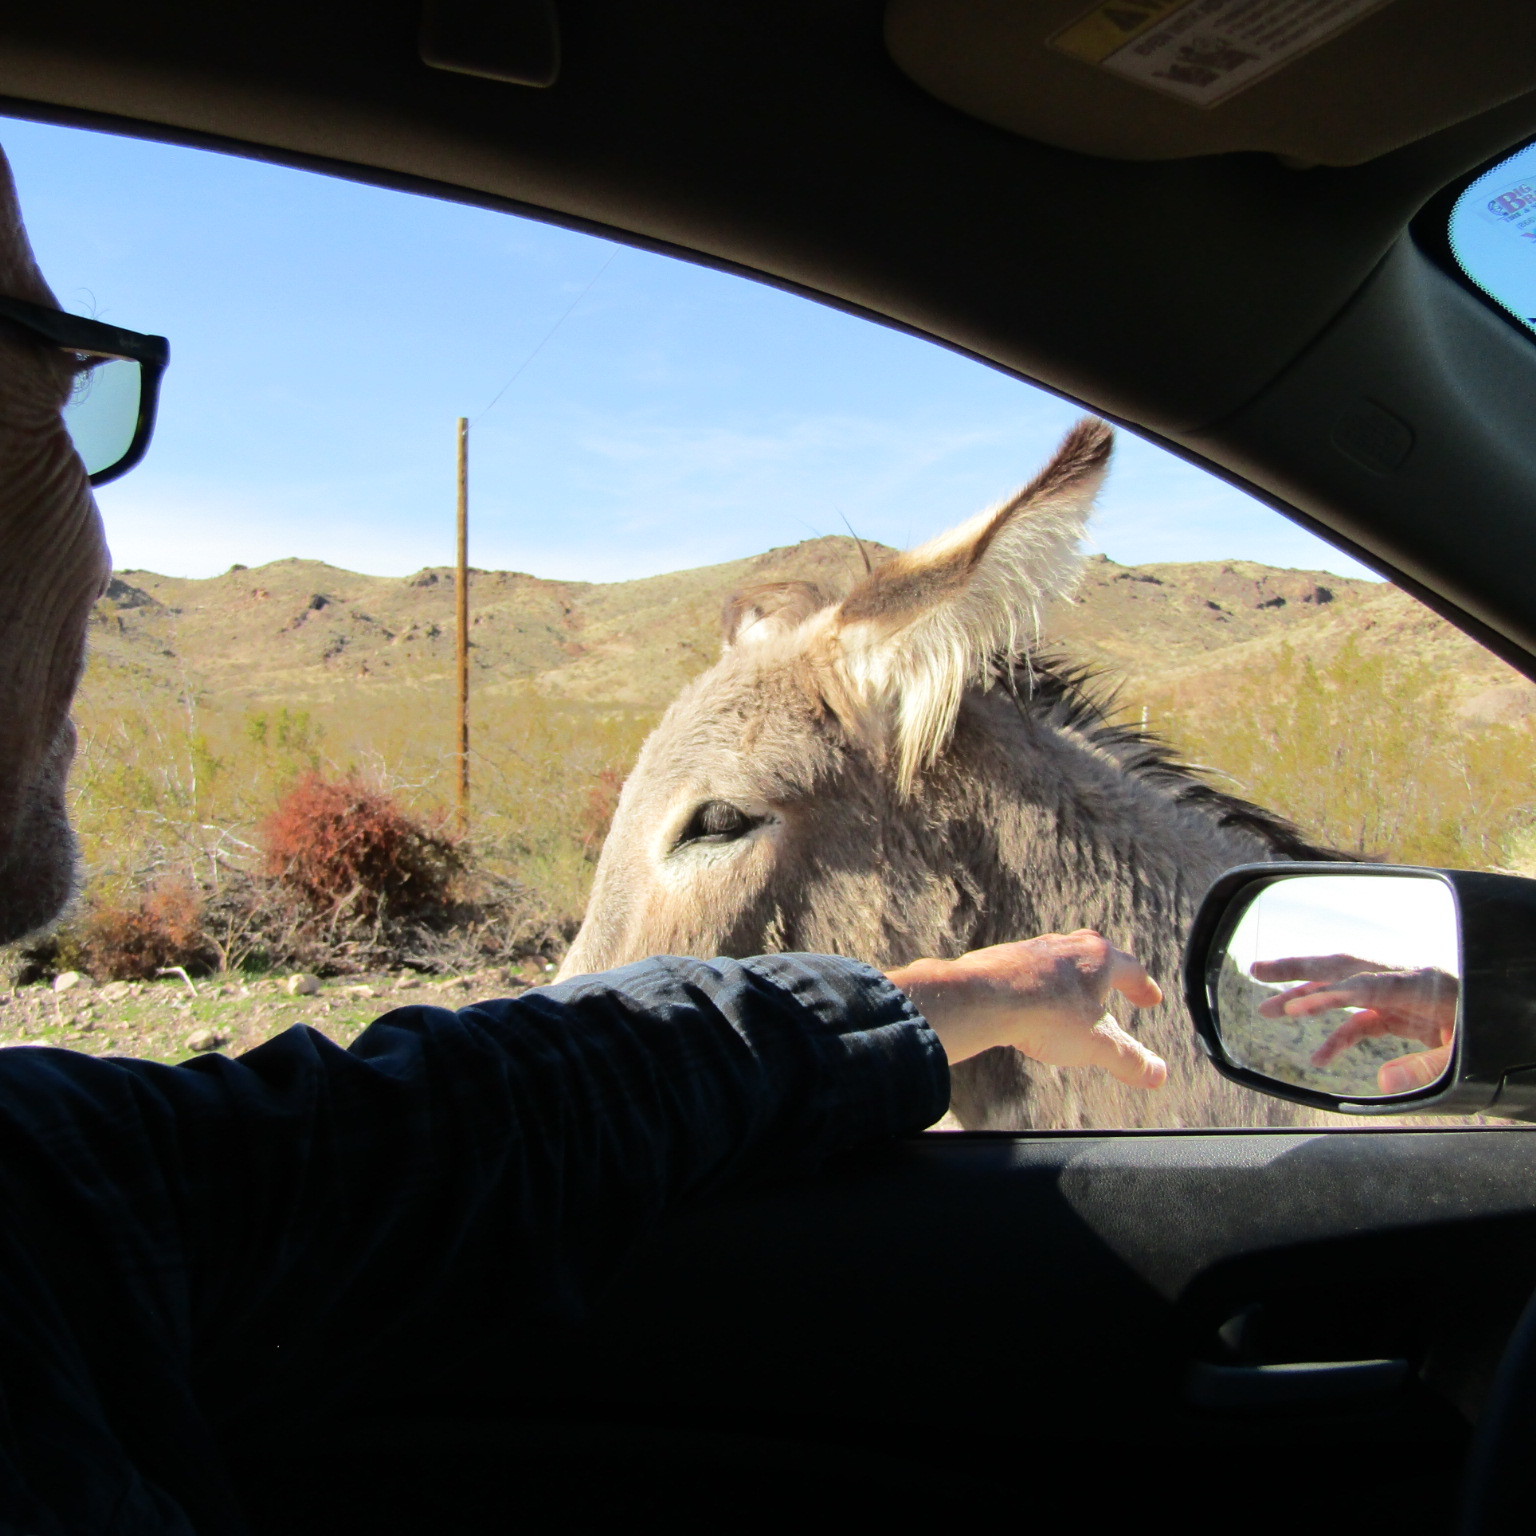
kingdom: Animalia
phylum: Chordata
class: Mammalia
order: Perissodactyla
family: Equidae
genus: Equus
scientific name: Equus asinus
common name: Ass
